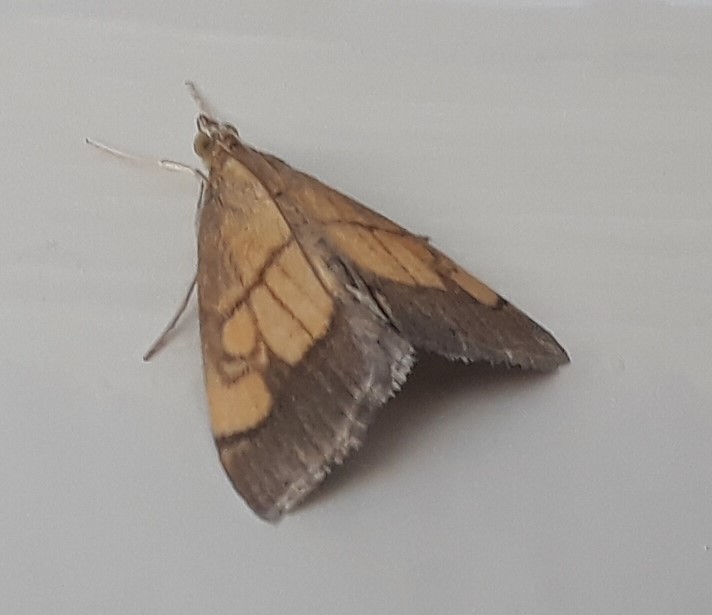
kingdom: Animalia
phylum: Arthropoda
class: Insecta
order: Lepidoptera
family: Crambidae
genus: Evergestis
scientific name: Evergestis limbata
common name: Dark bordered pearl
